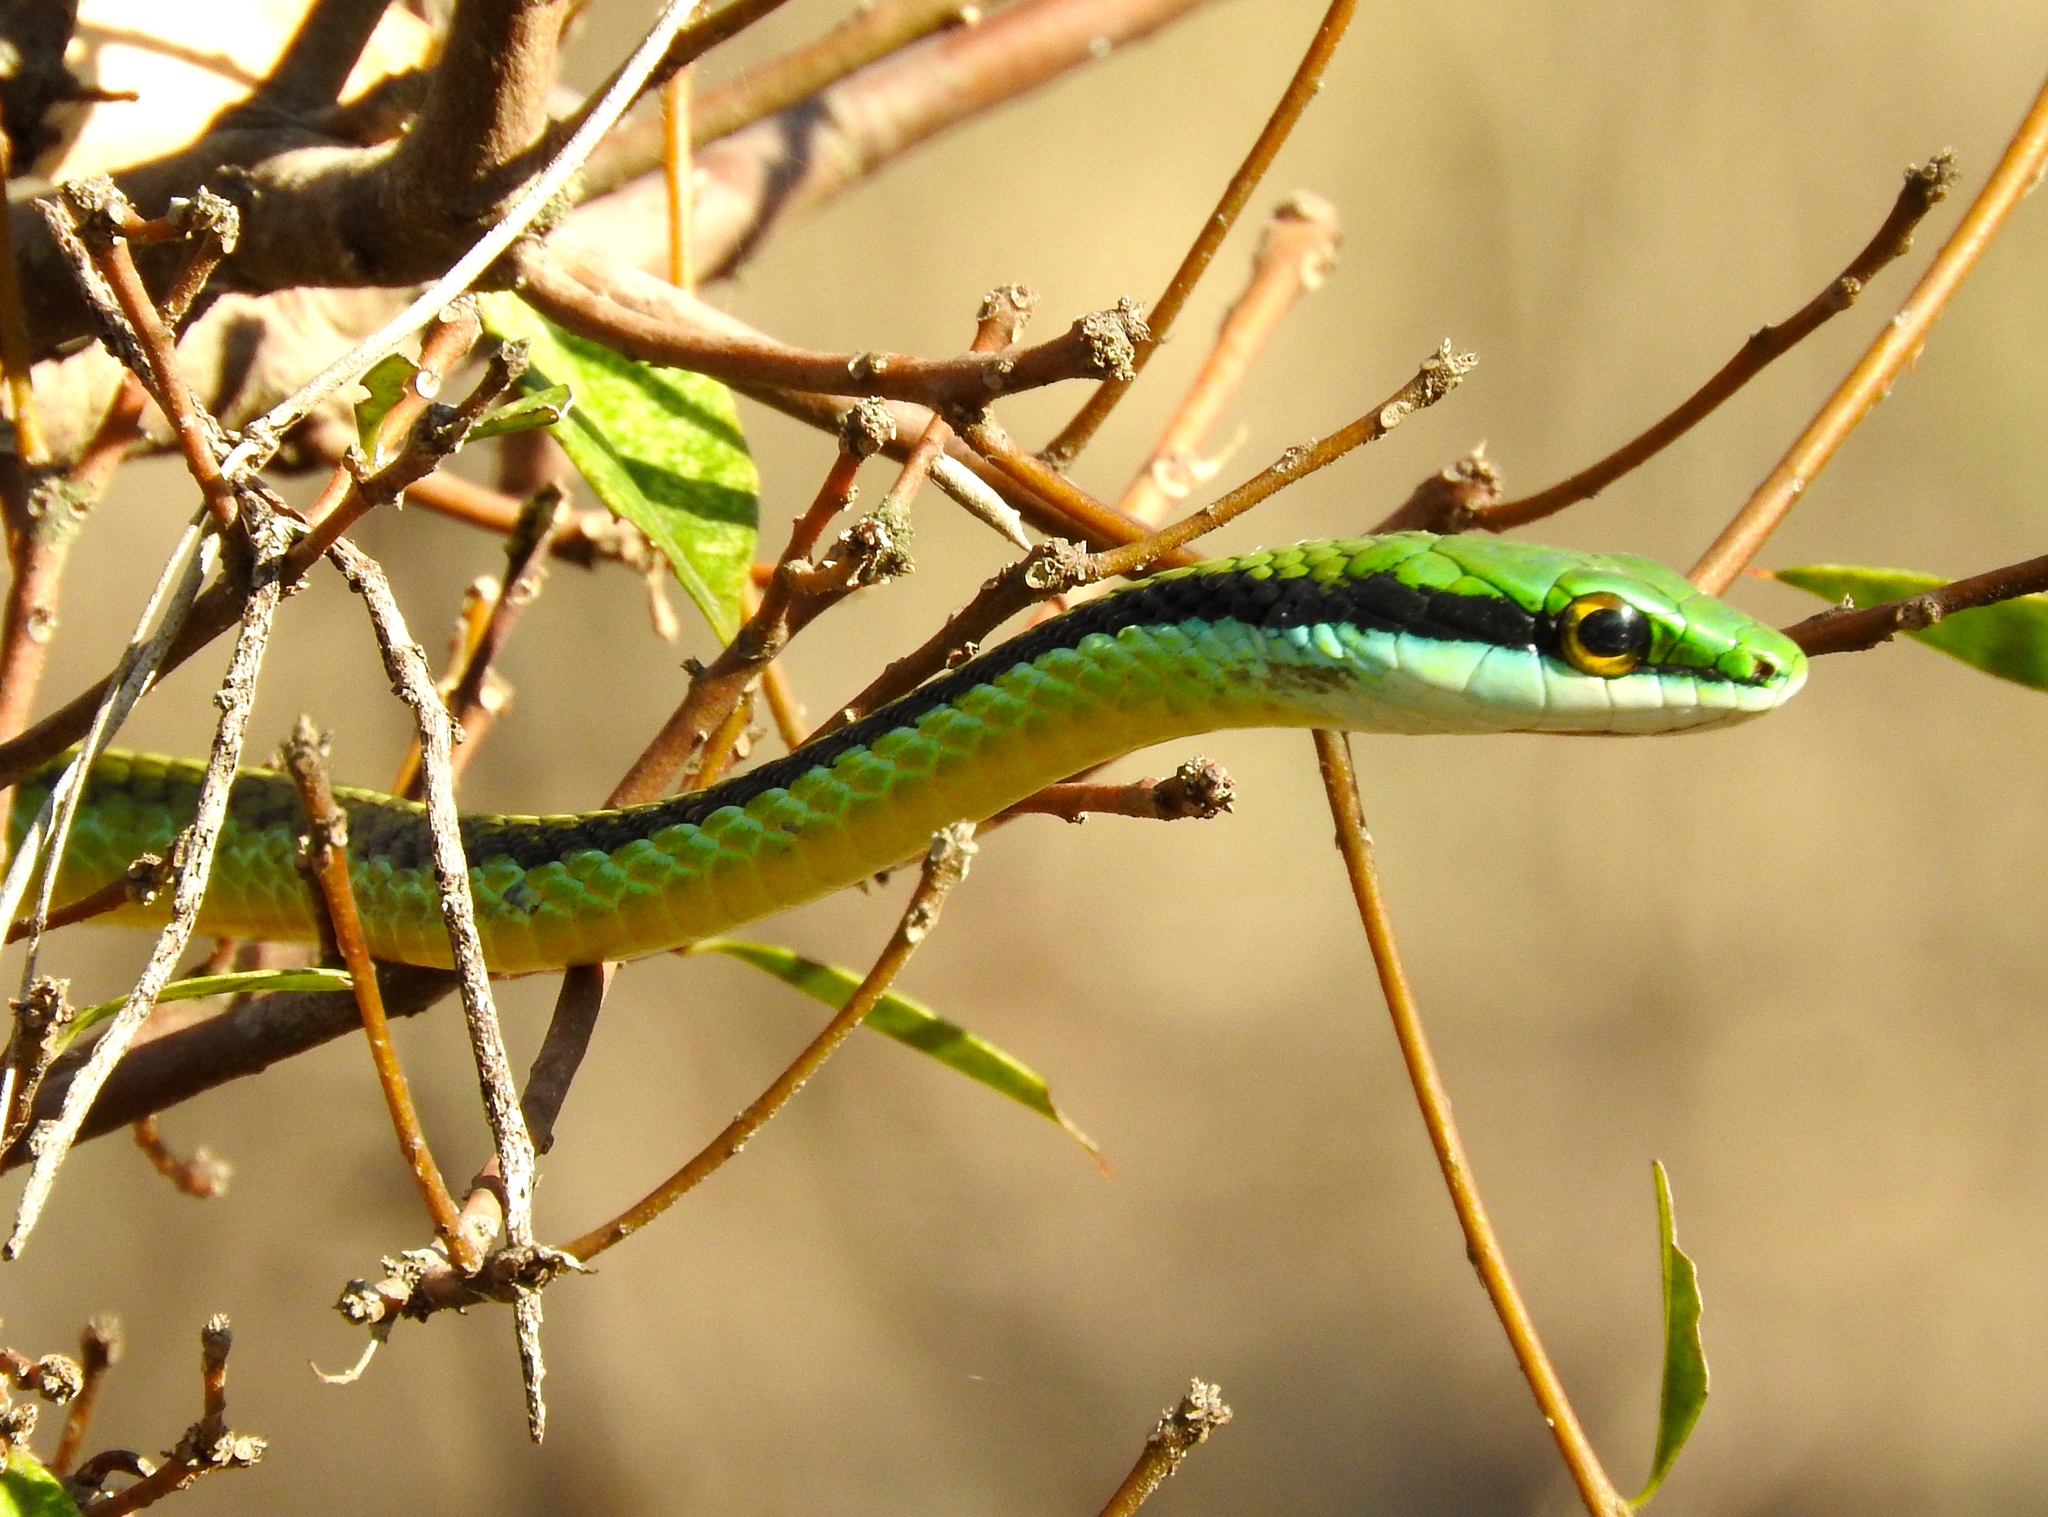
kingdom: Animalia
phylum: Chordata
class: Squamata
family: Colubridae
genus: Leptophis
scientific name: Leptophis diplotropis
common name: Pacific coast parrot snake
